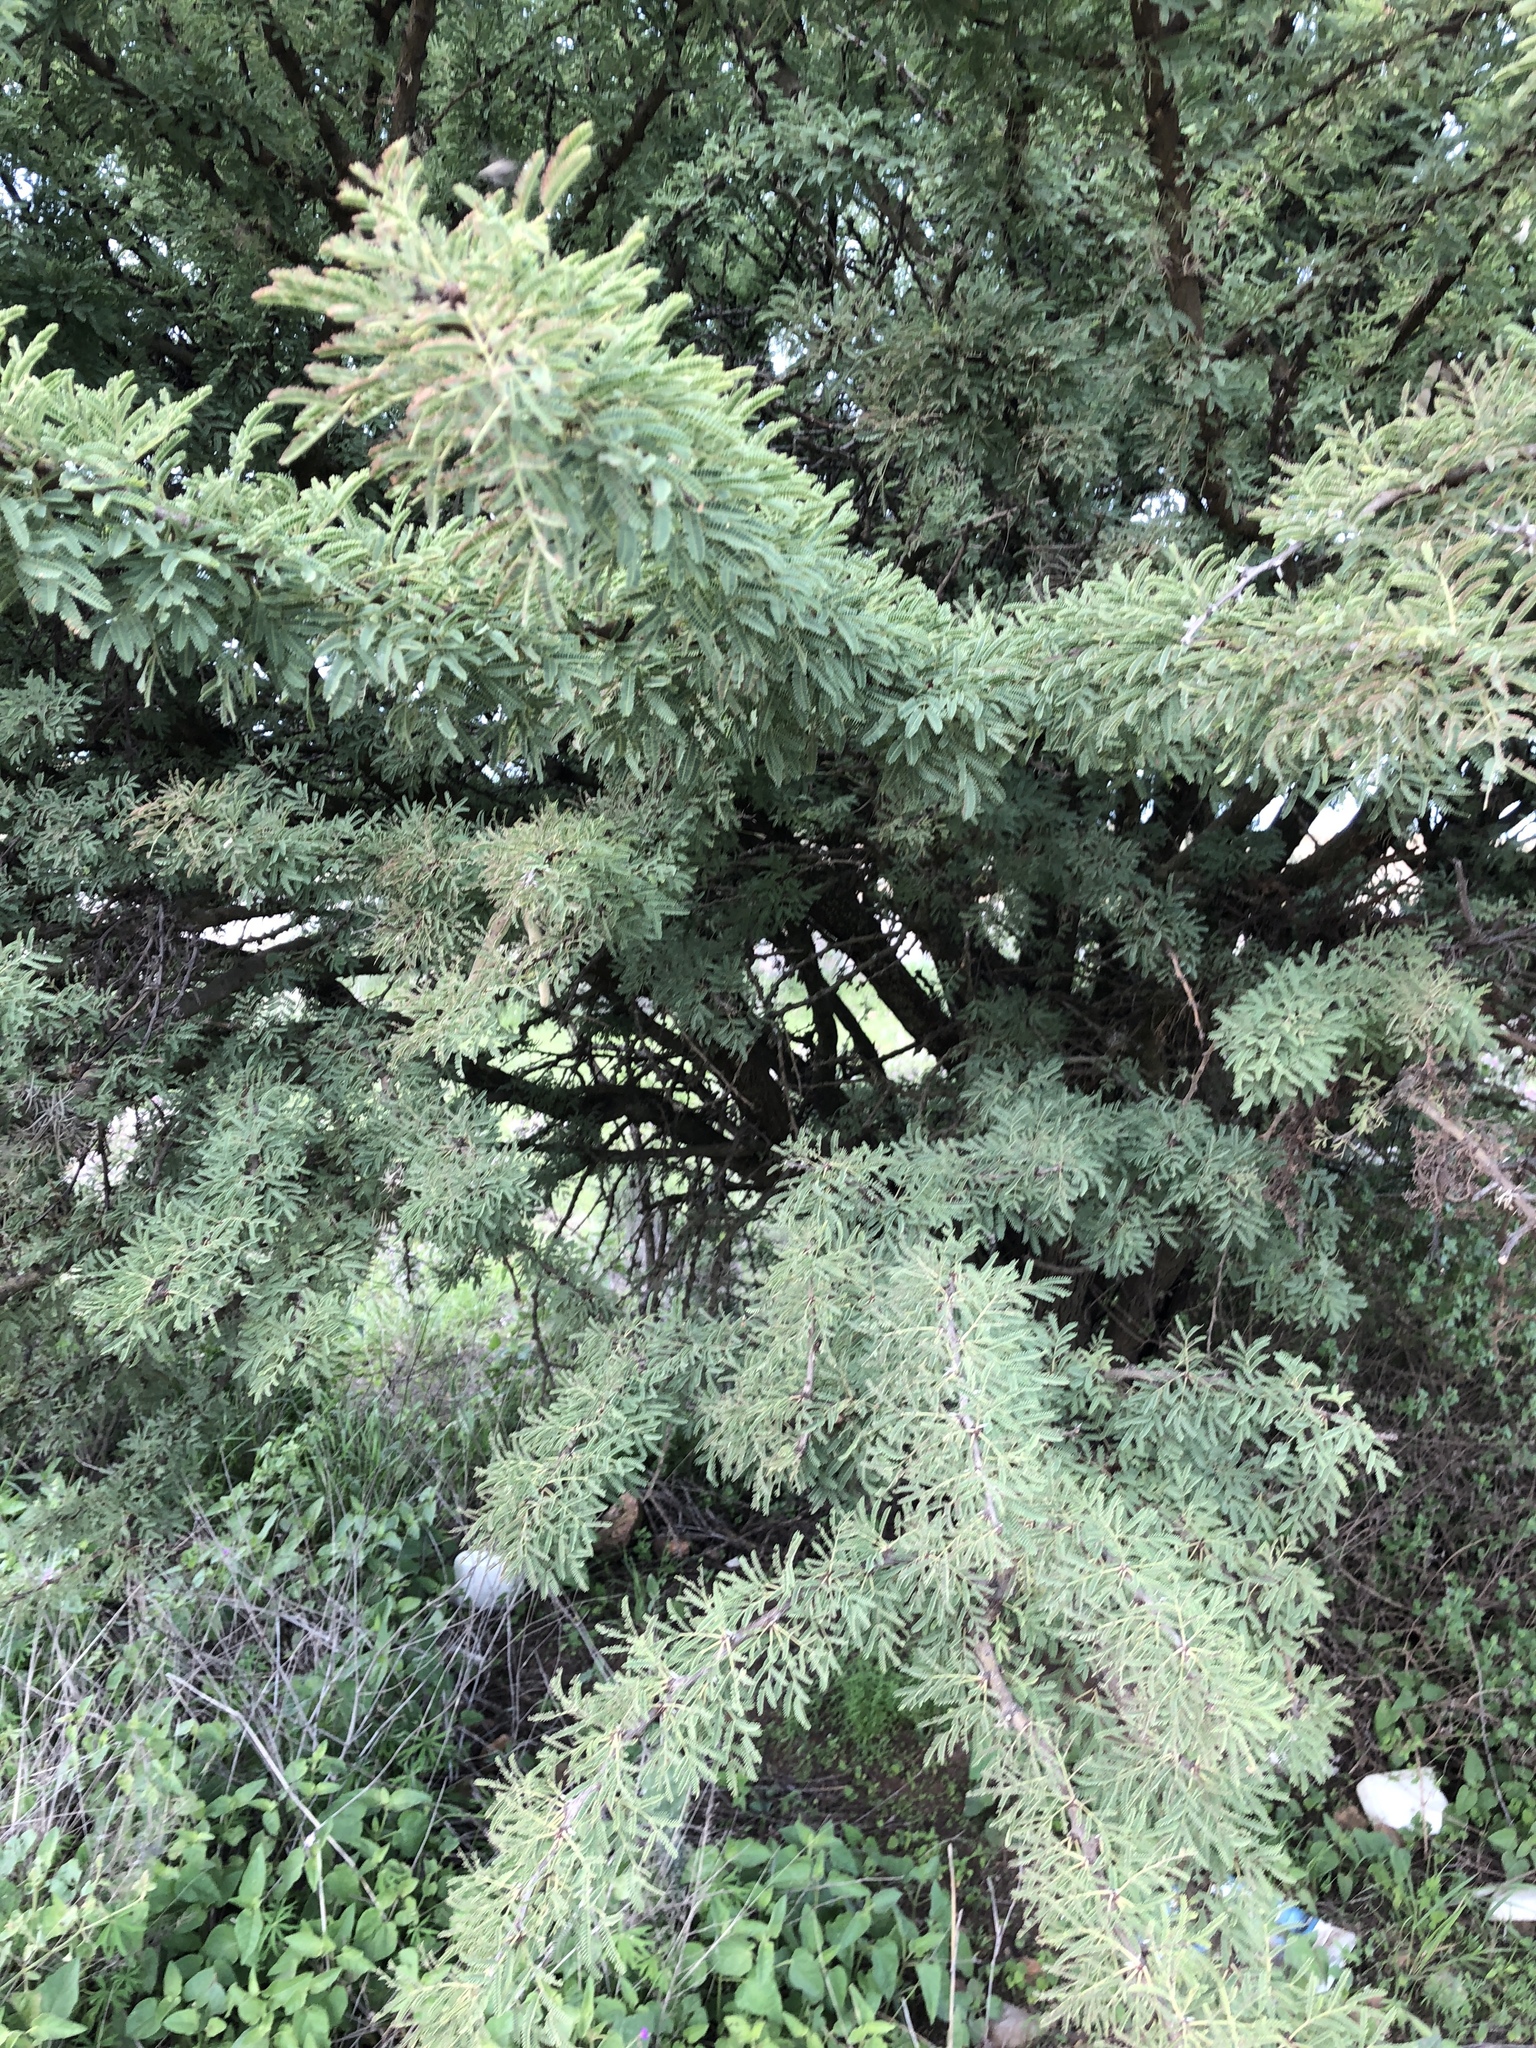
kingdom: Plantae
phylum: Tracheophyta
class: Magnoliopsida
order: Fabales
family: Fabaceae
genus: Vachellia
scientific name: Vachellia schaffneri
